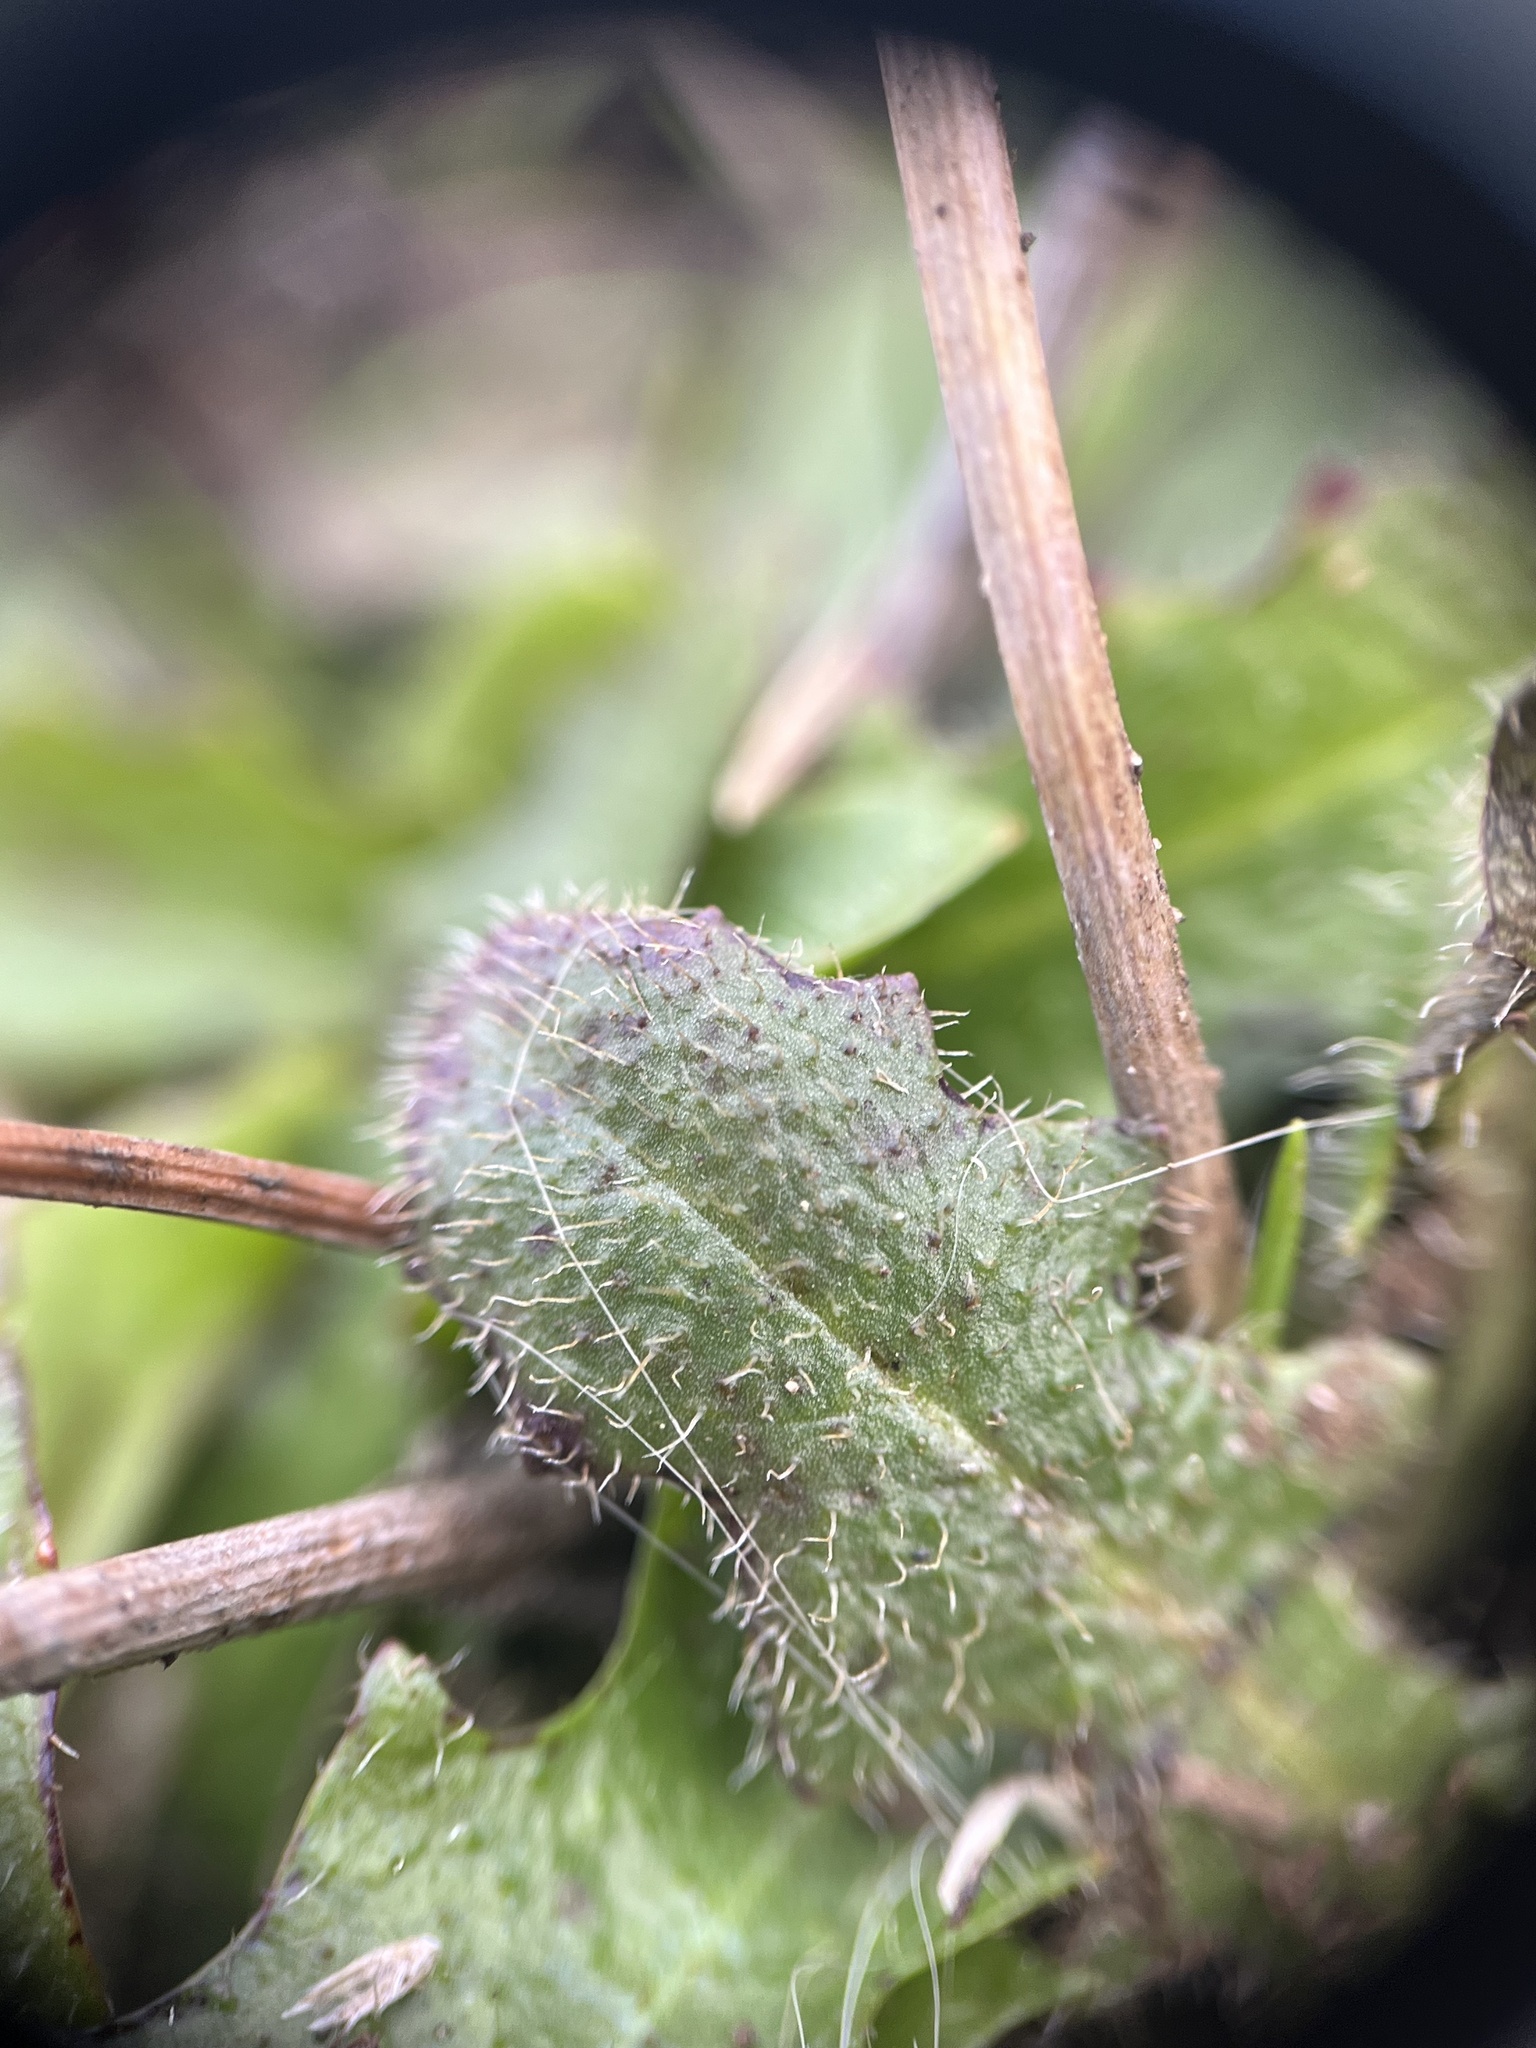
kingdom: Plantae
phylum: Tracheophyta
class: Magnoliopsida
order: Asterales
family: Asteraceae
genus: Hypochaeris
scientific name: Hypochaeris radicata
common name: Flatweed
